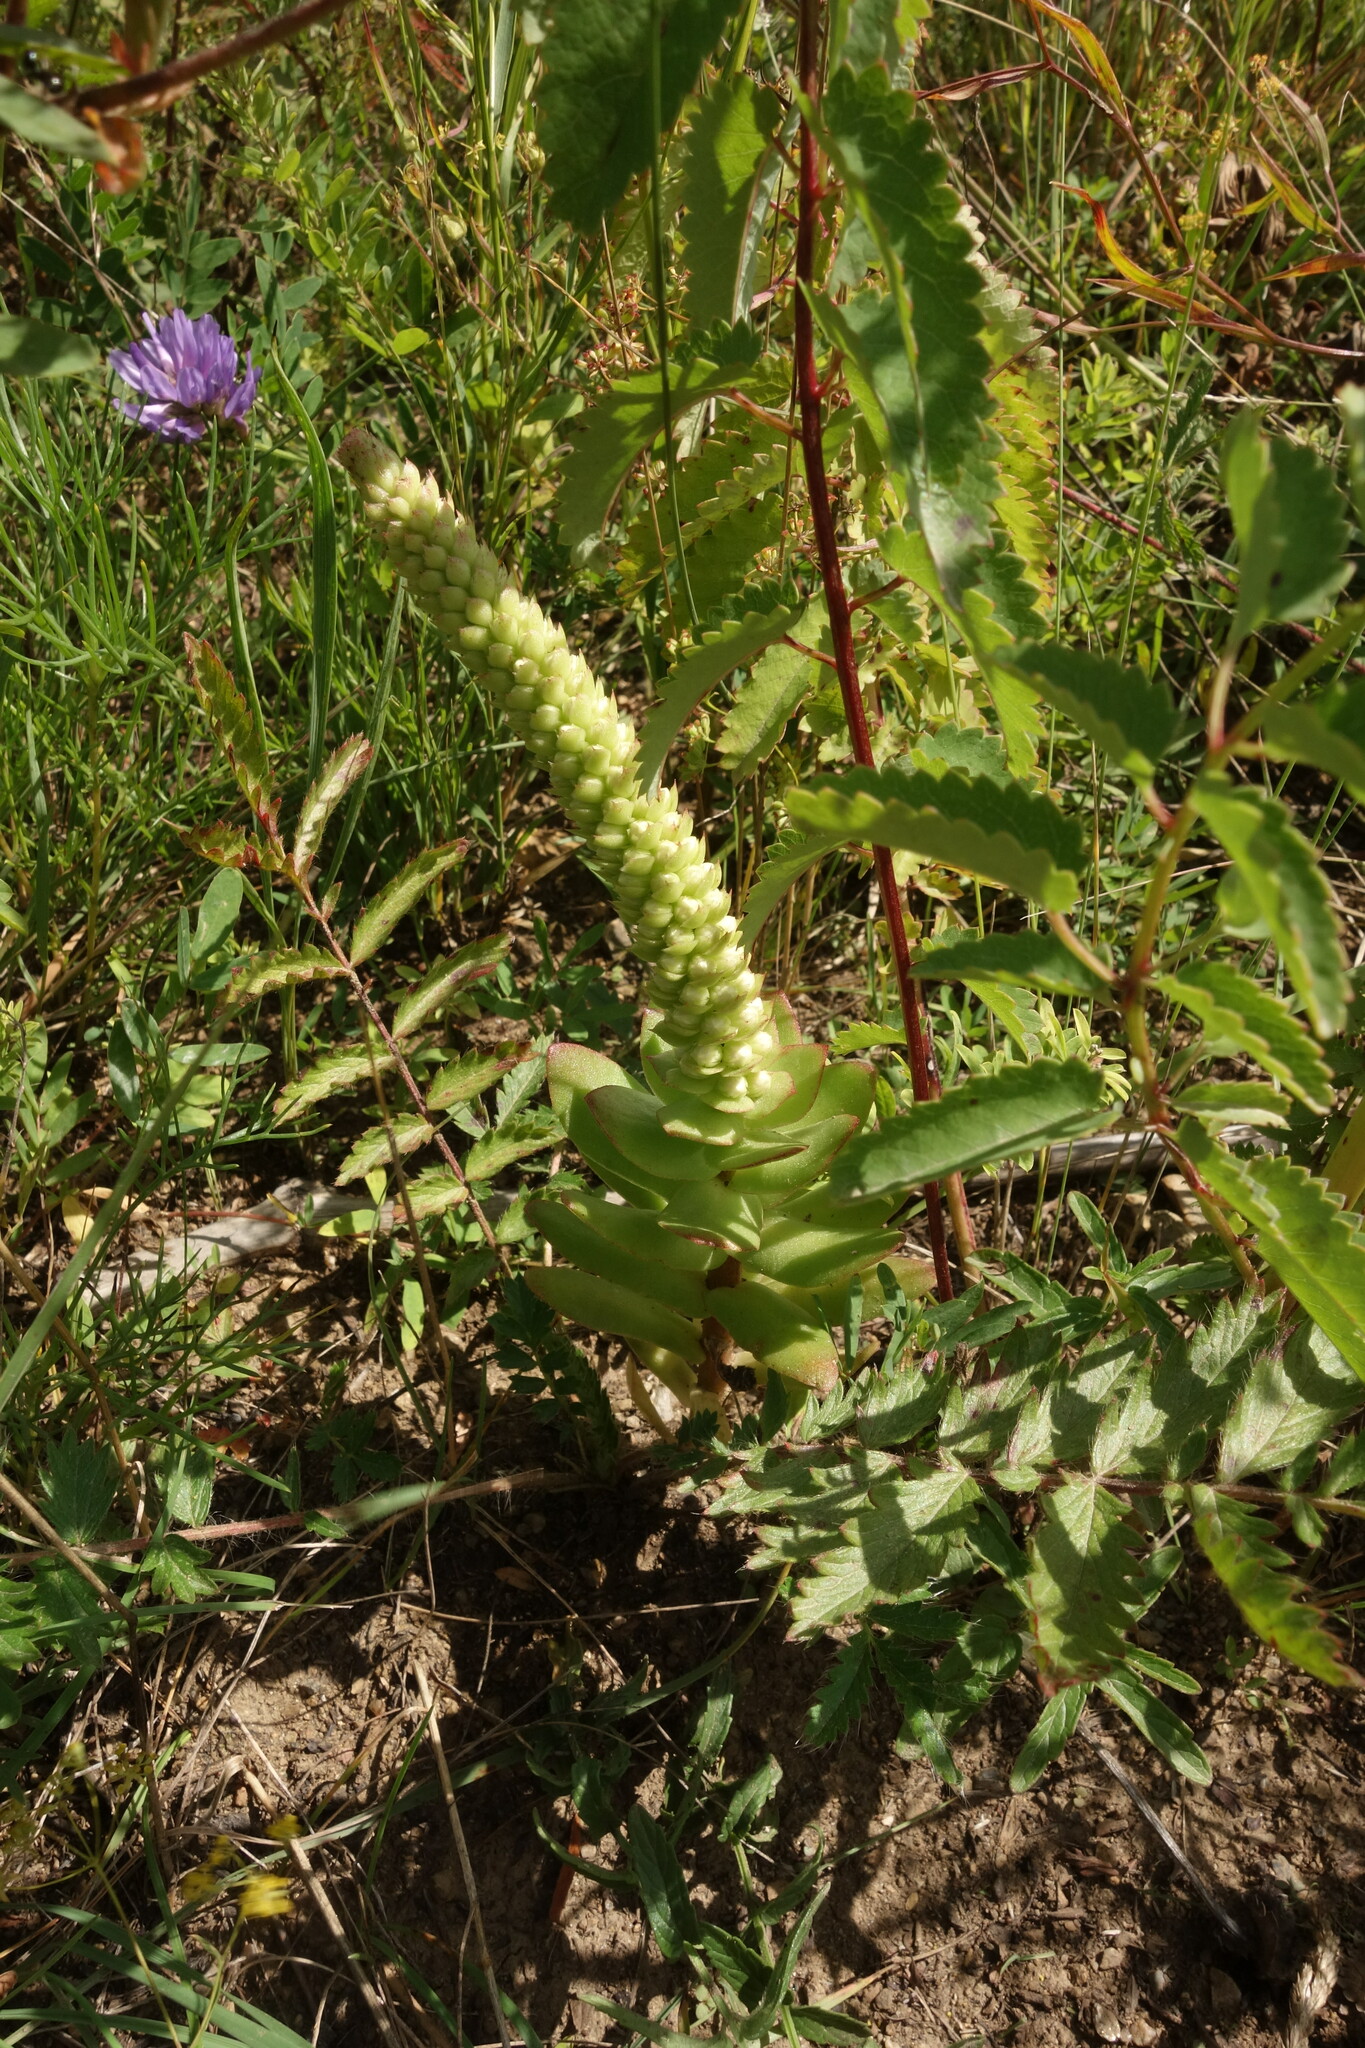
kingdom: Plantae
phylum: Tracheophyta
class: Magnoliopsida
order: Saxifragales
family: Crassulaceae
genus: Orostachys
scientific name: Orostachys malacophylla
